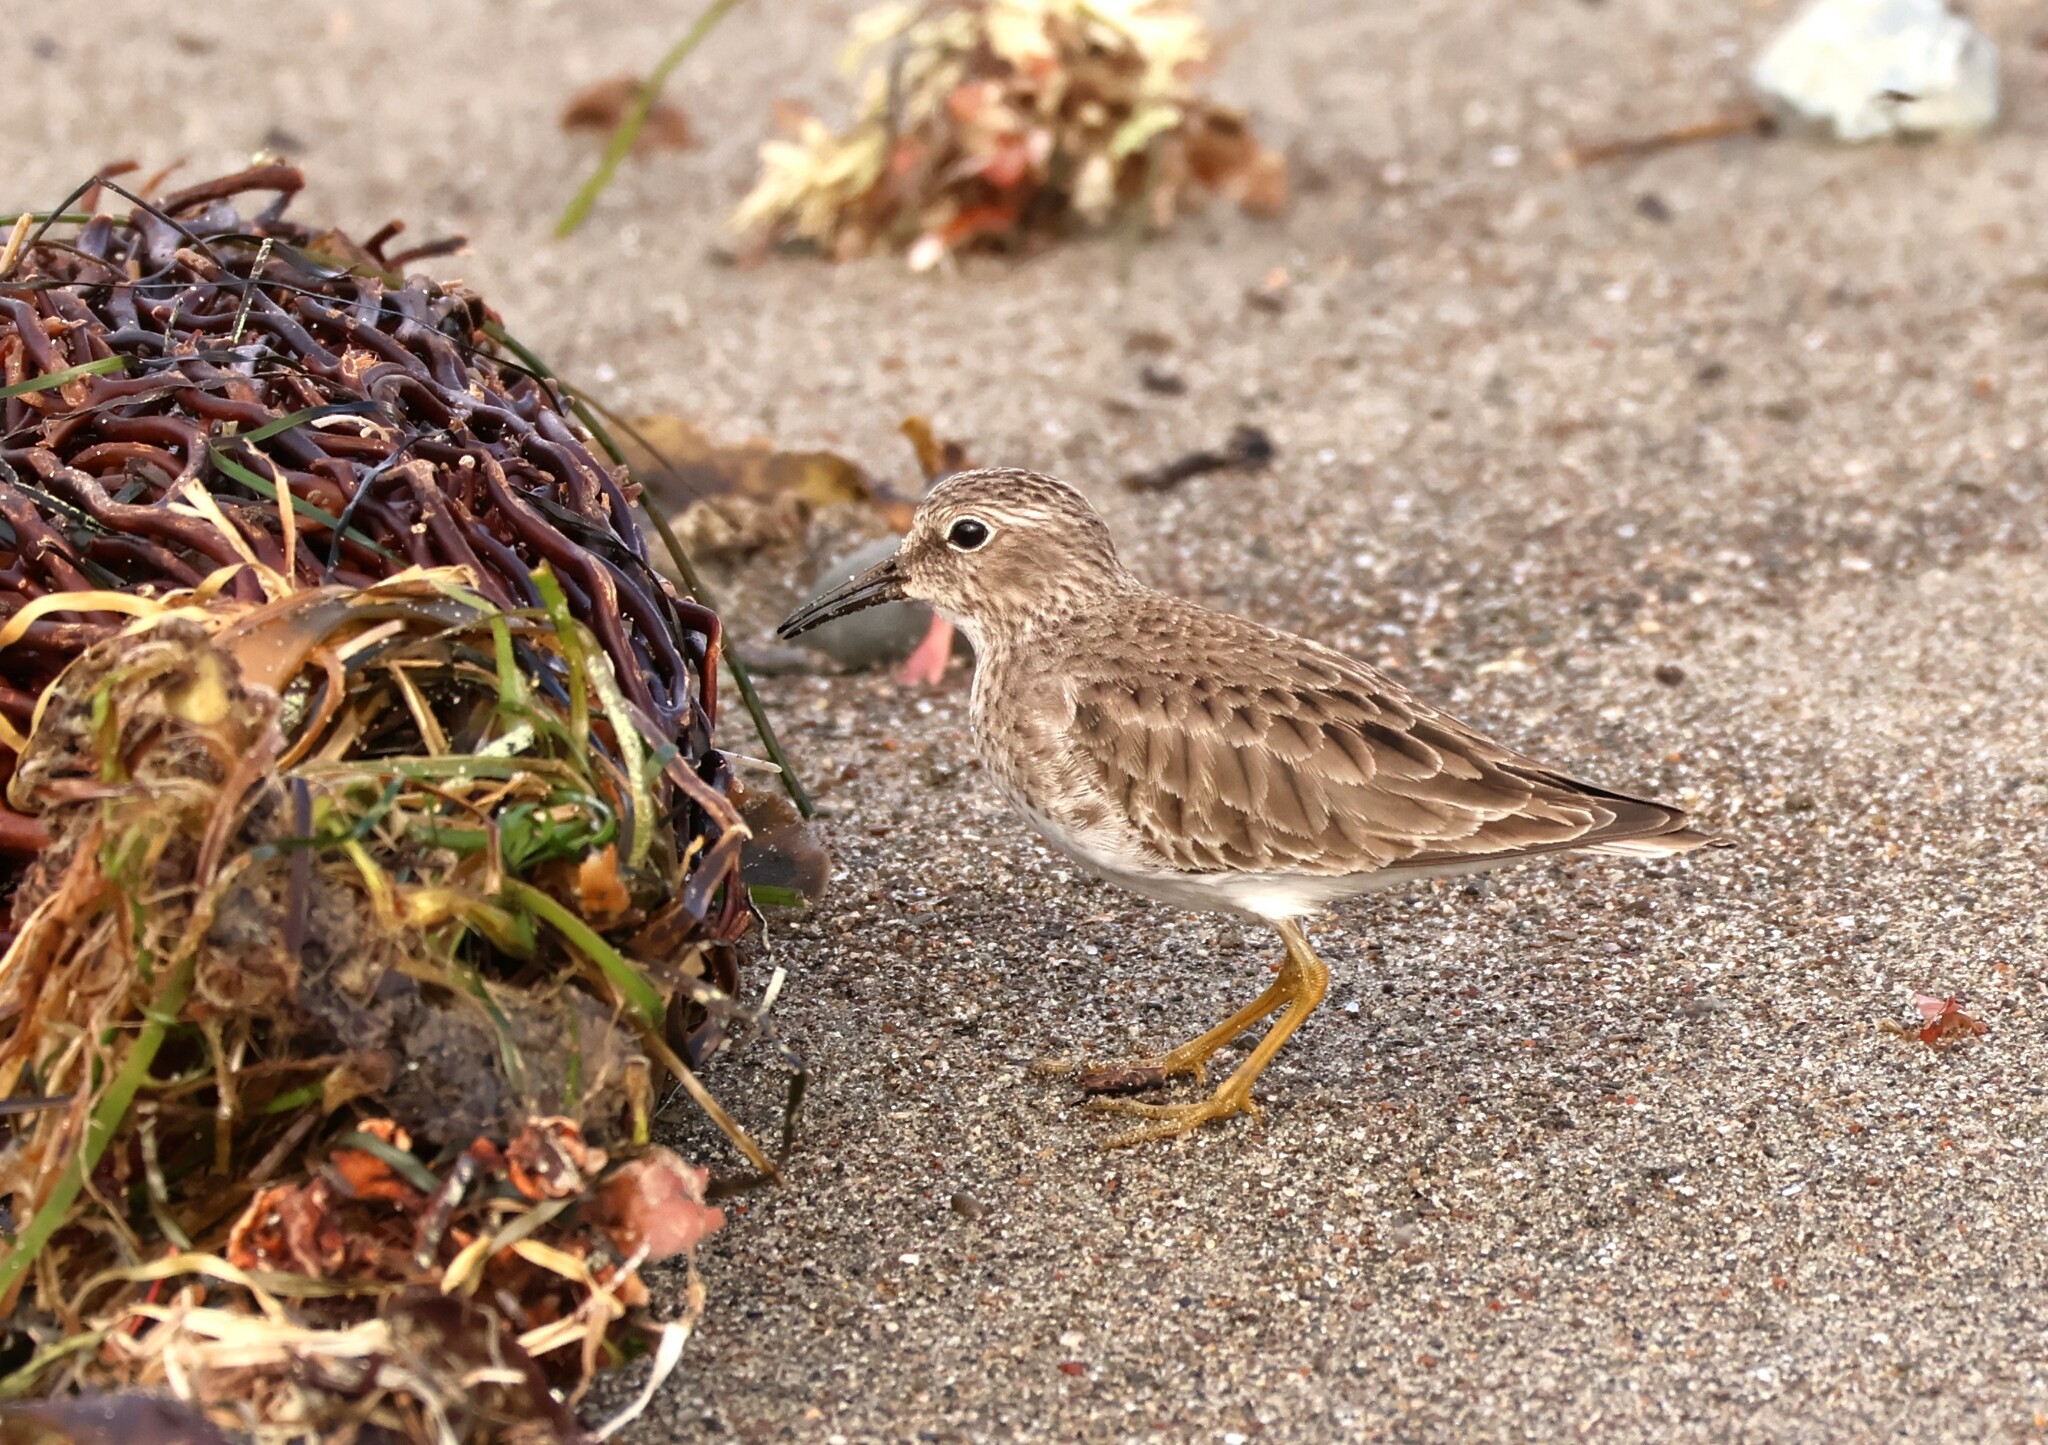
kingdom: Animalia
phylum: Chordata
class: Aves
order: Charadriiformes
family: Scolopacidae
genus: Calidris
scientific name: Calidris minutilla
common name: Least sandpiper
